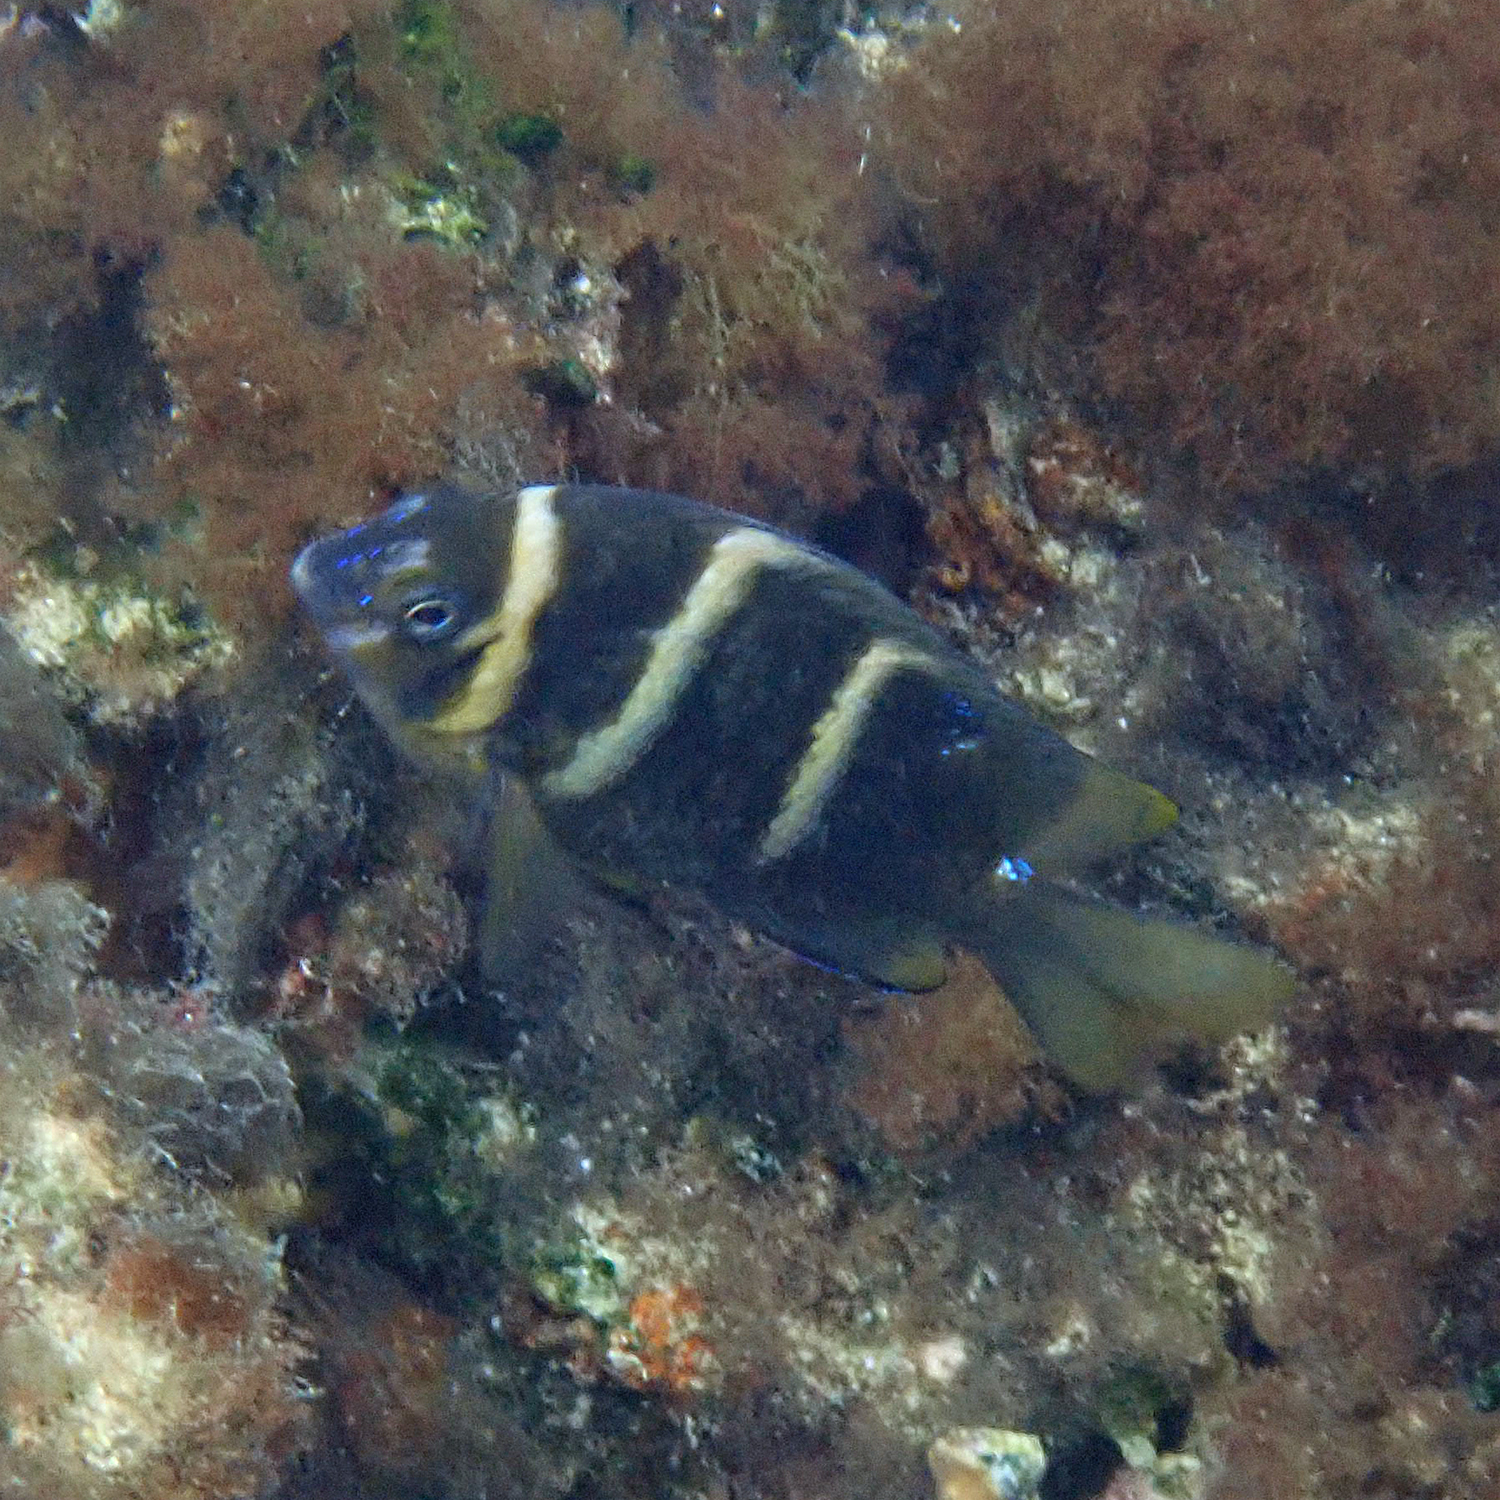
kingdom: Animalia
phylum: Chordata
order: Perciformes
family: Pomacentridae
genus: Parma
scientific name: Parma polylepis
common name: Banded parma
